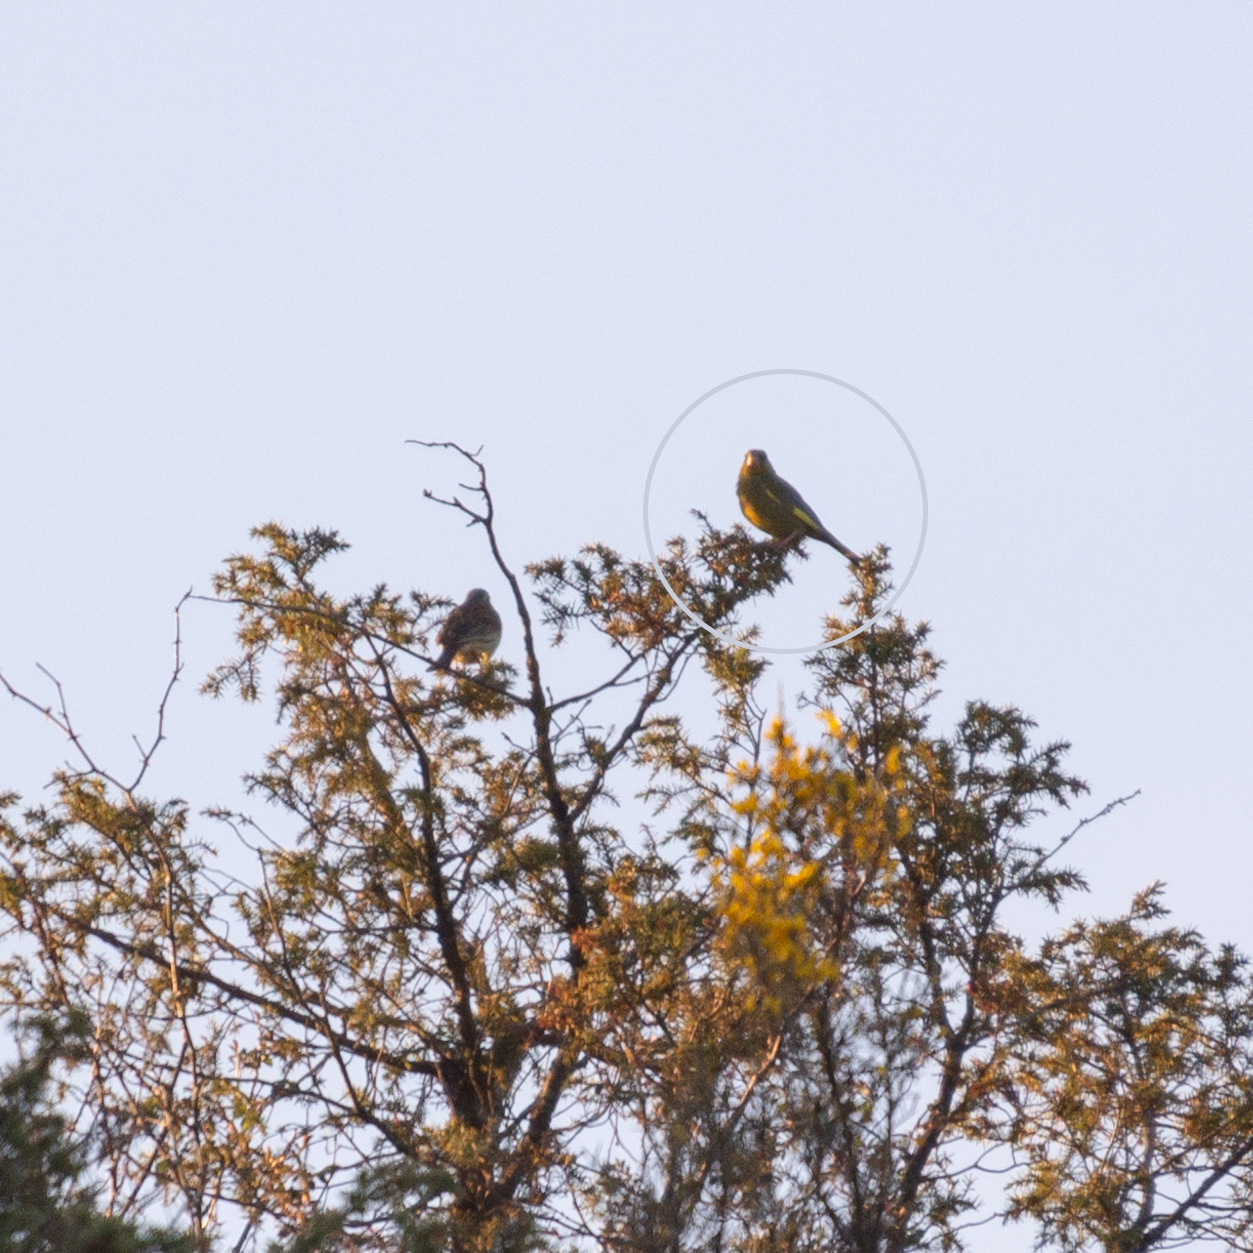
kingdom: Plantae
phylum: Tracheophyta
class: Liliopsida
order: Poales
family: Poaceae
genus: Chloris
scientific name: Chloris chloris
